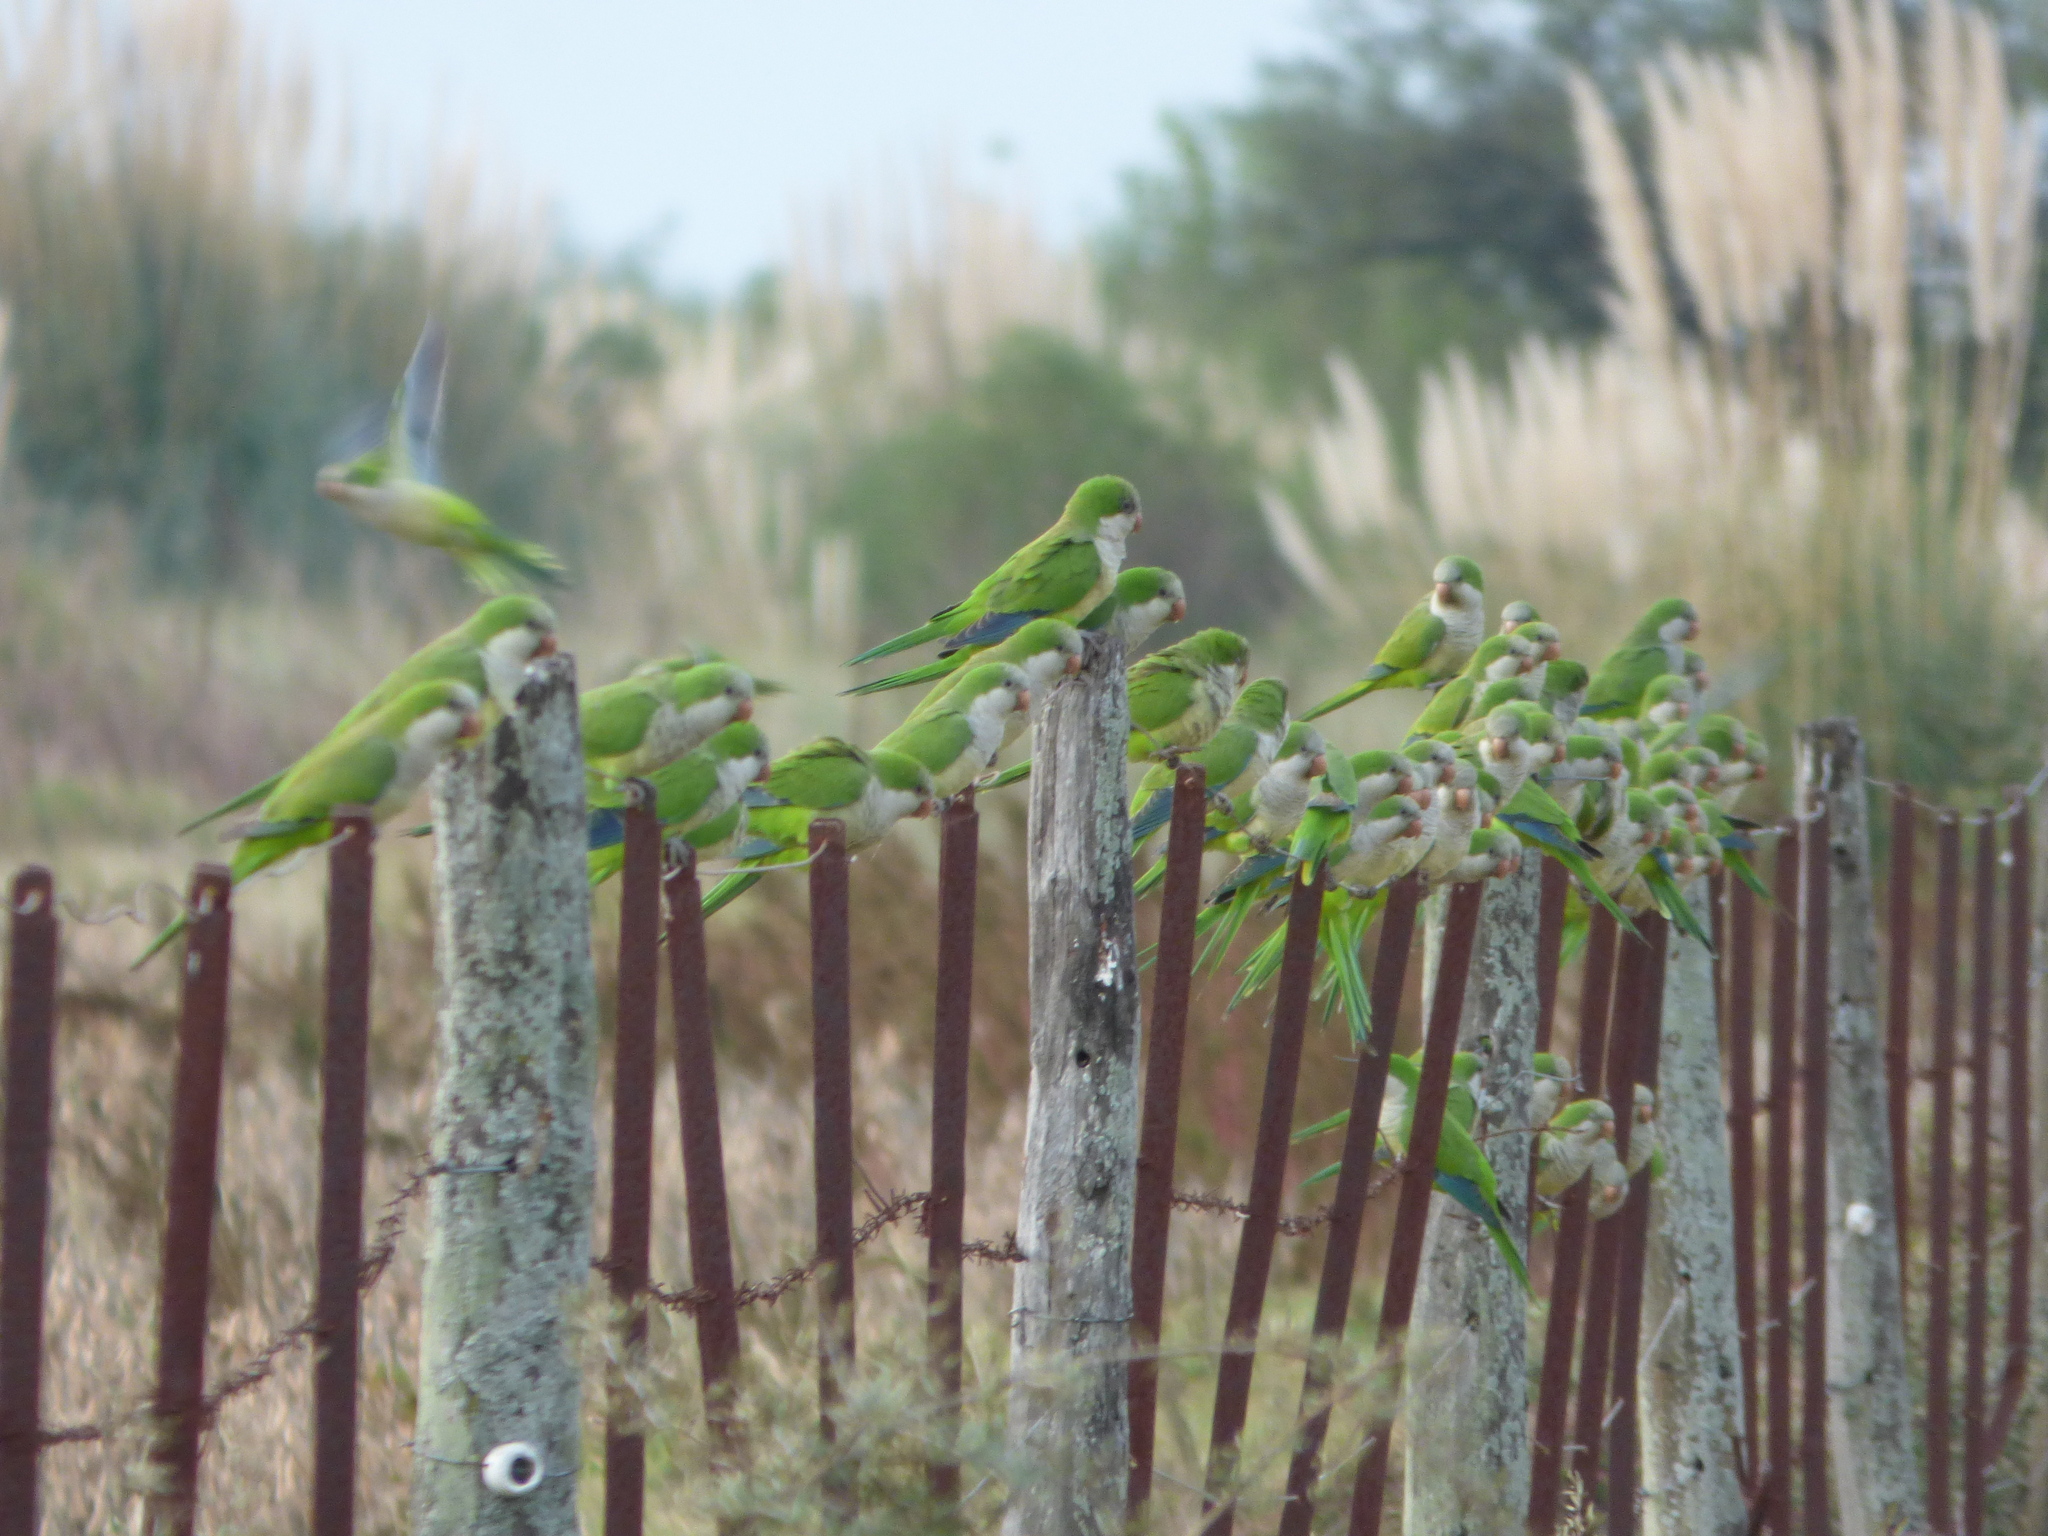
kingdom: Animalia
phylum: Chordata
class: Aves
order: Psittaciformes
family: Psittacidae
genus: Myiopsitta
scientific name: Myiopsitta monachus
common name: Monk parakeet
